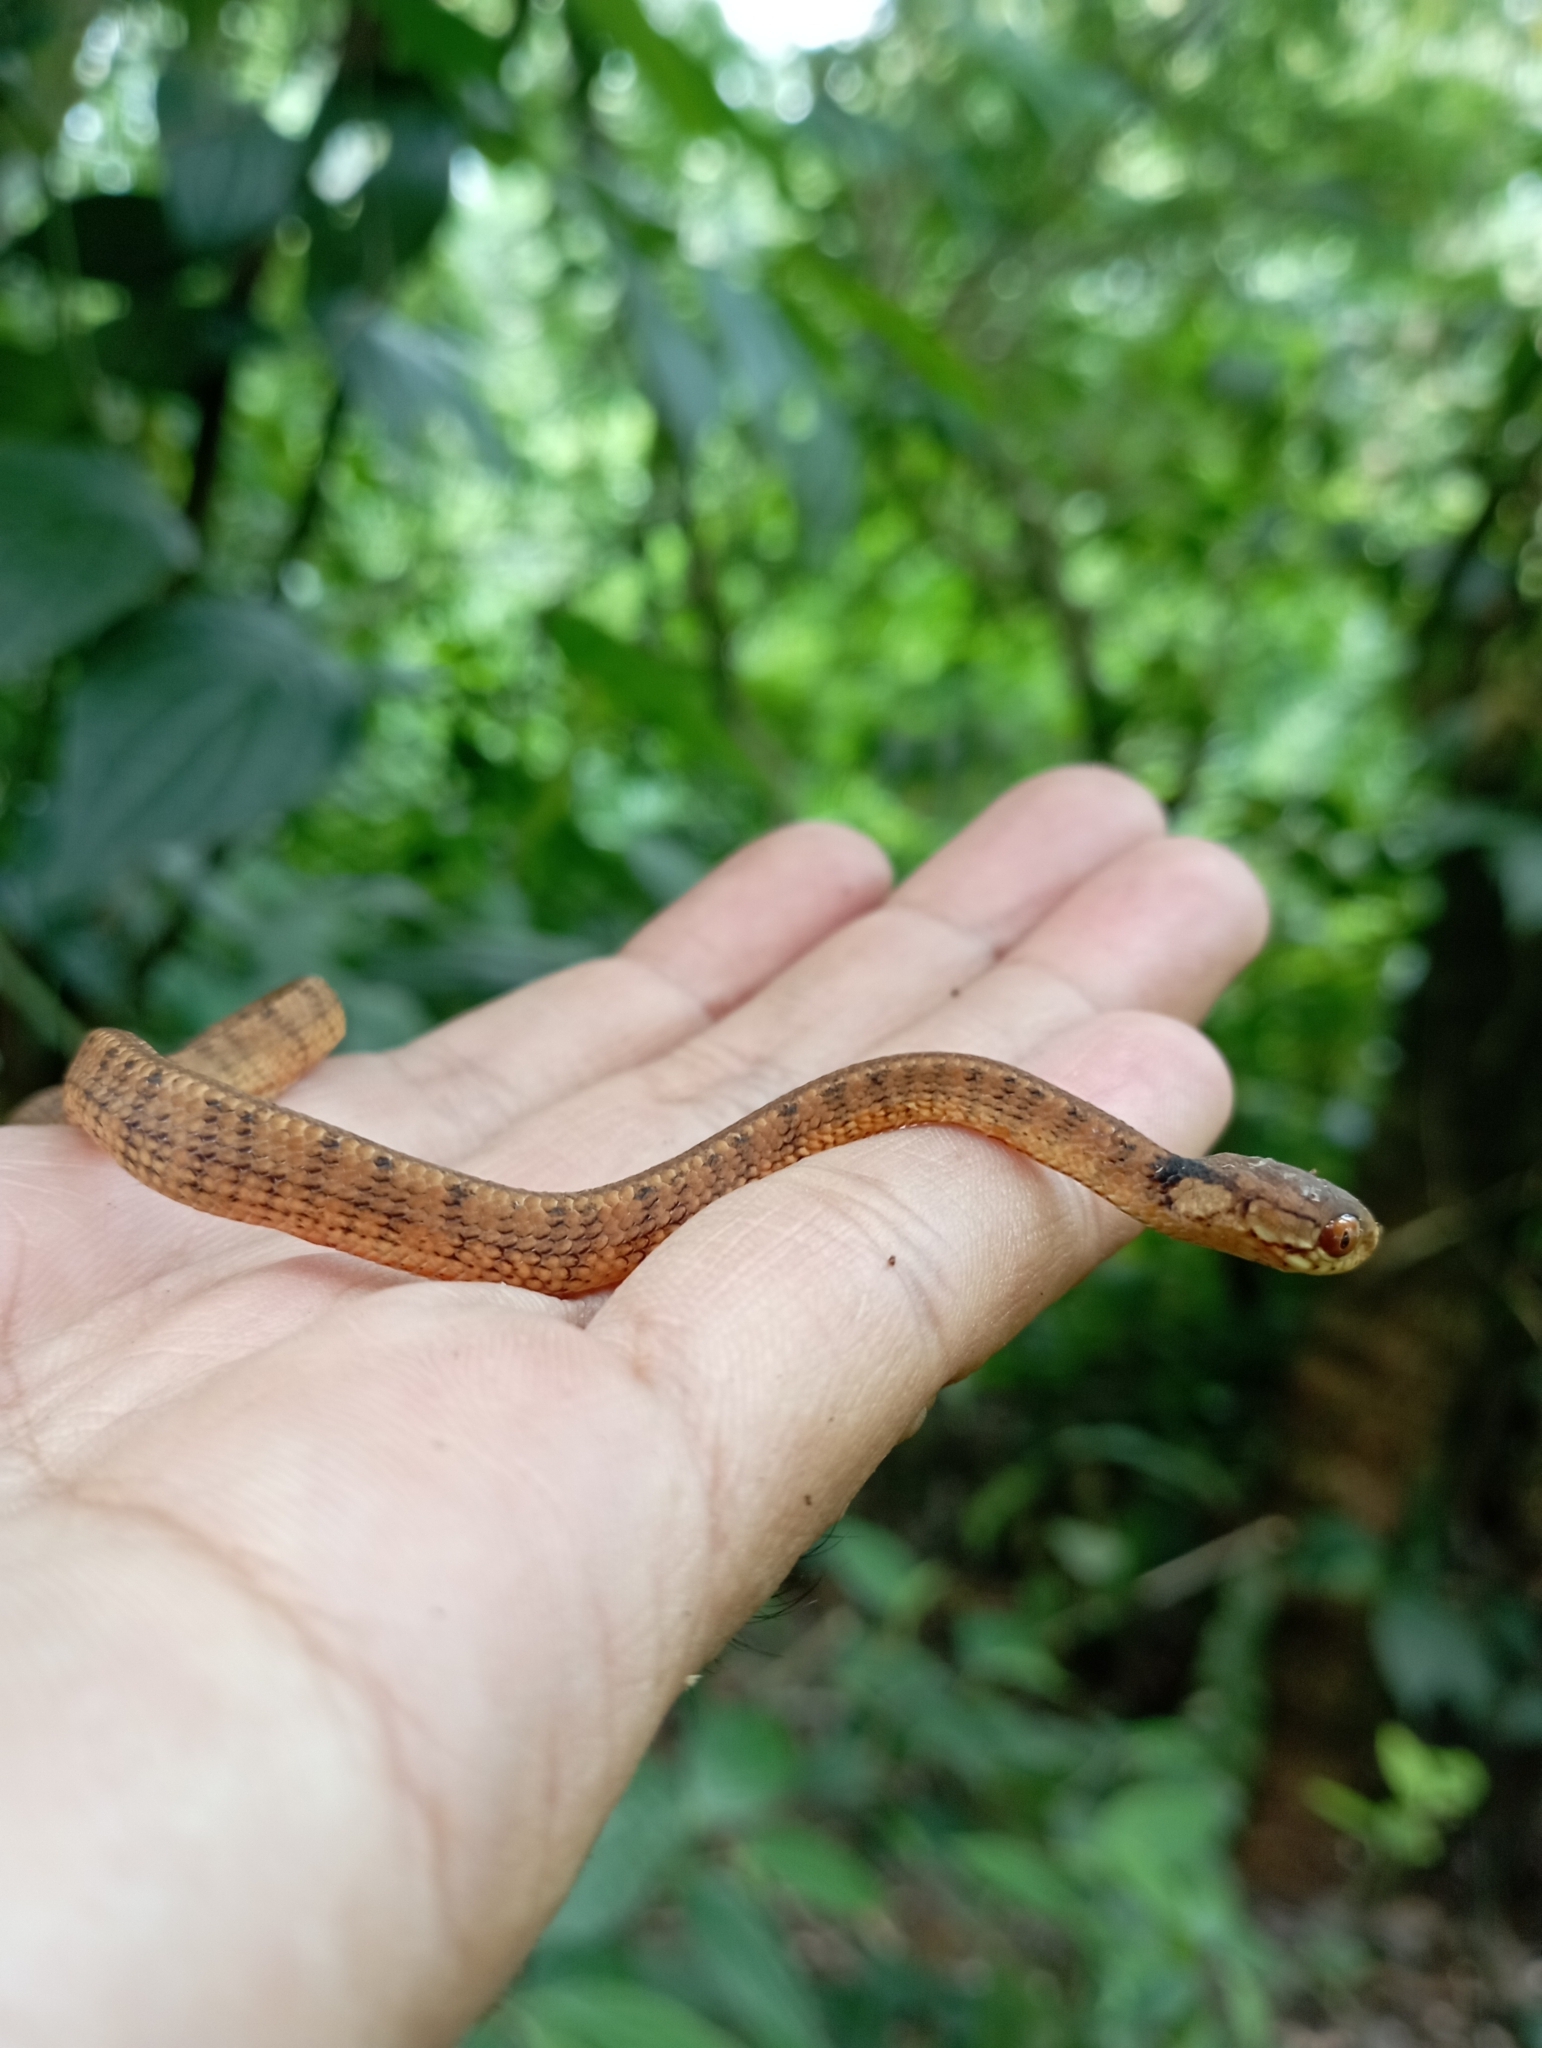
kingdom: Animalia
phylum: Chordata
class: Squamata
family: Pareidae
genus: Pareas
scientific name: Pareas carinatus
